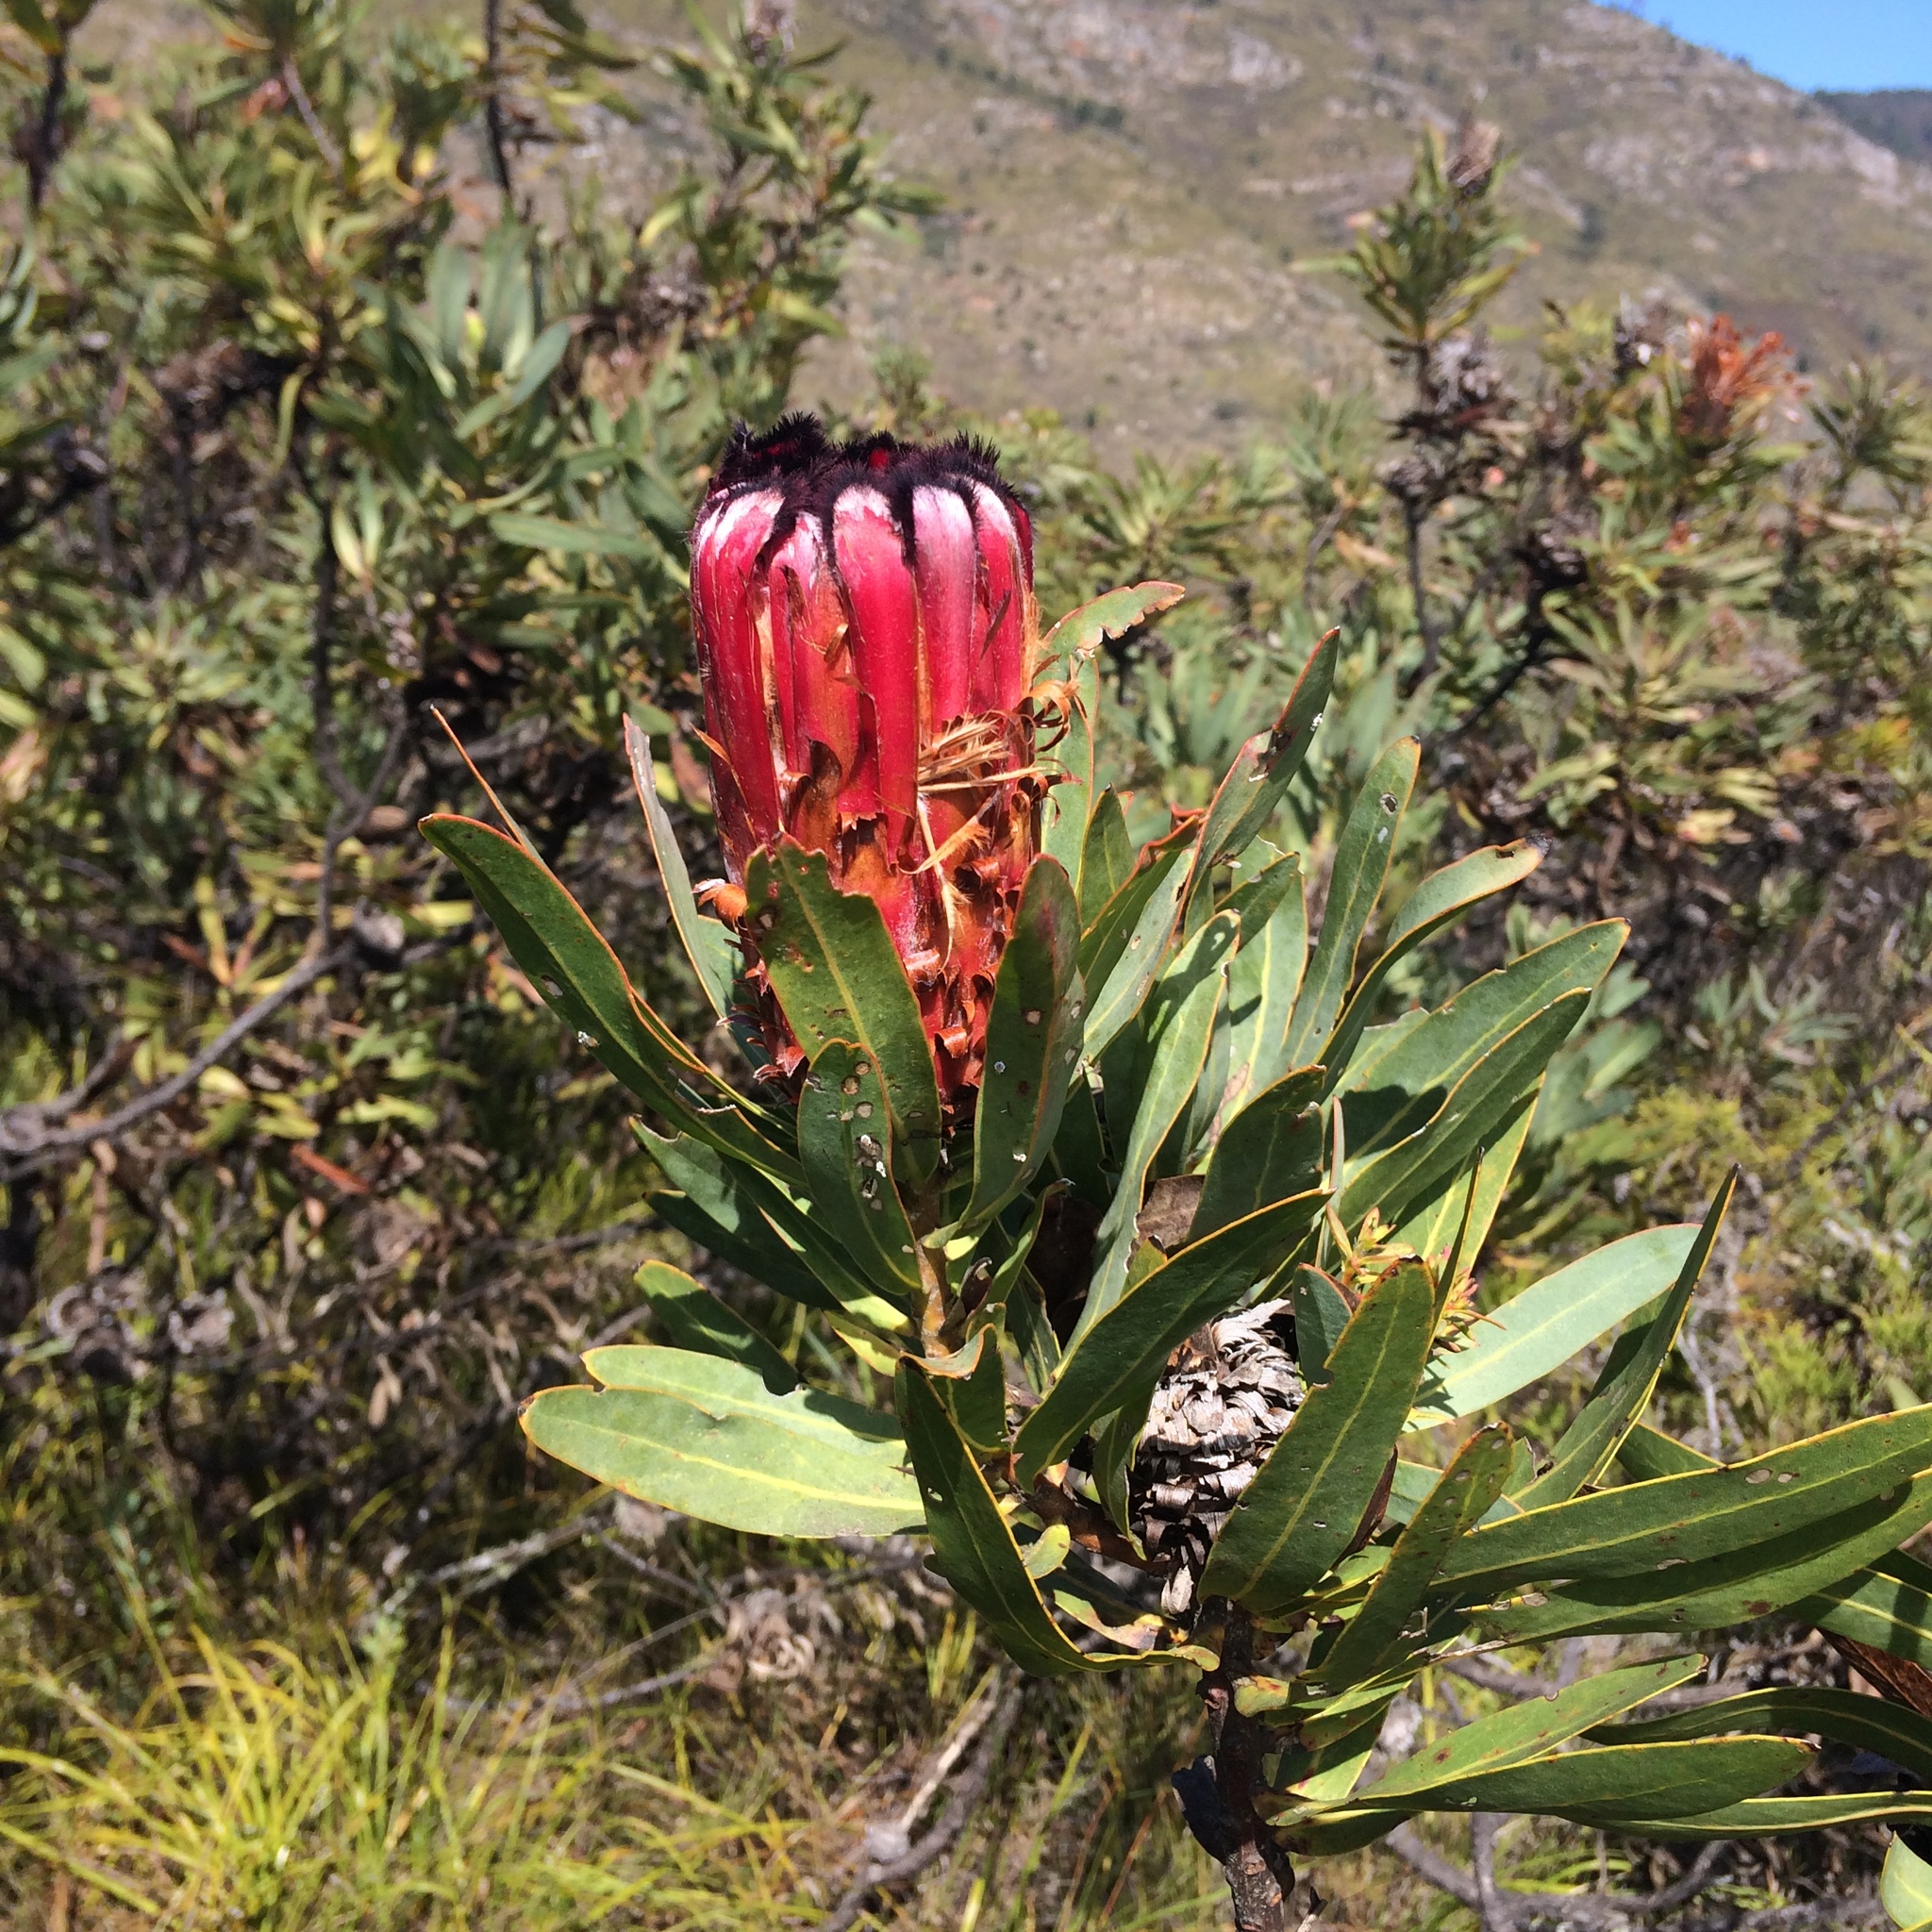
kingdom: Plantae
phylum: Tracheophyta
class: Magnoliopsida
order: Proteales
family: Proteaceae
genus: Protea
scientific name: Protea neriifolia
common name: Blue sugarbush
